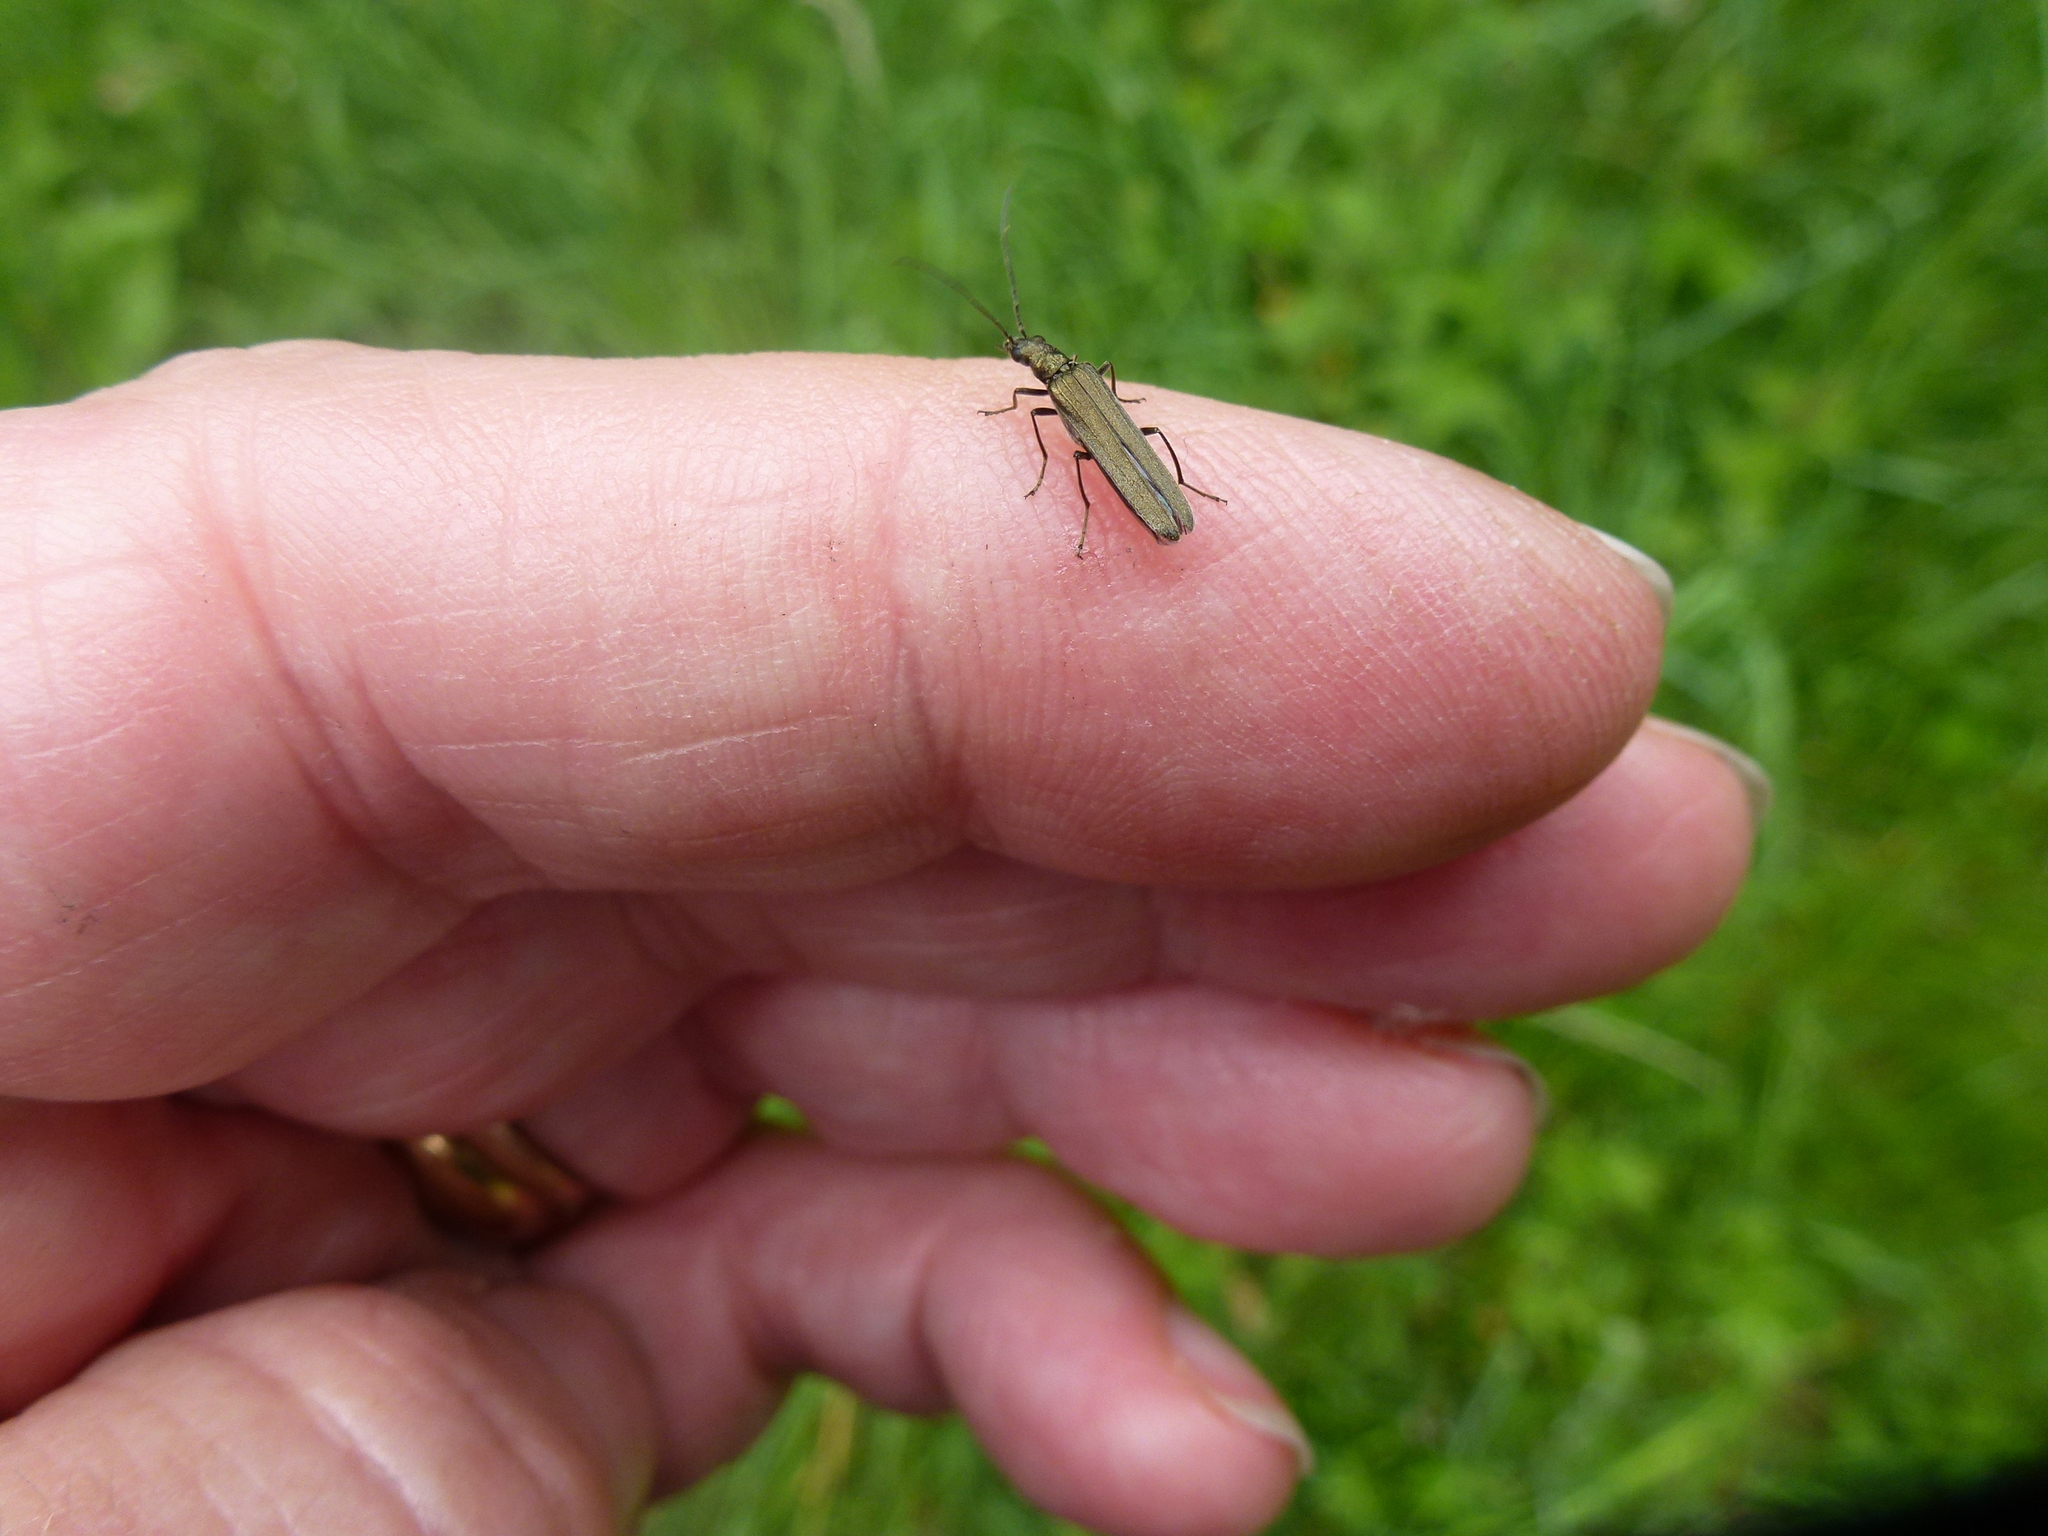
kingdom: Animalia
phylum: Arthropoda
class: Insecta
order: Coleoptera
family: Oedemeridae
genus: Oedemera
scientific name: Oedemera lurida
